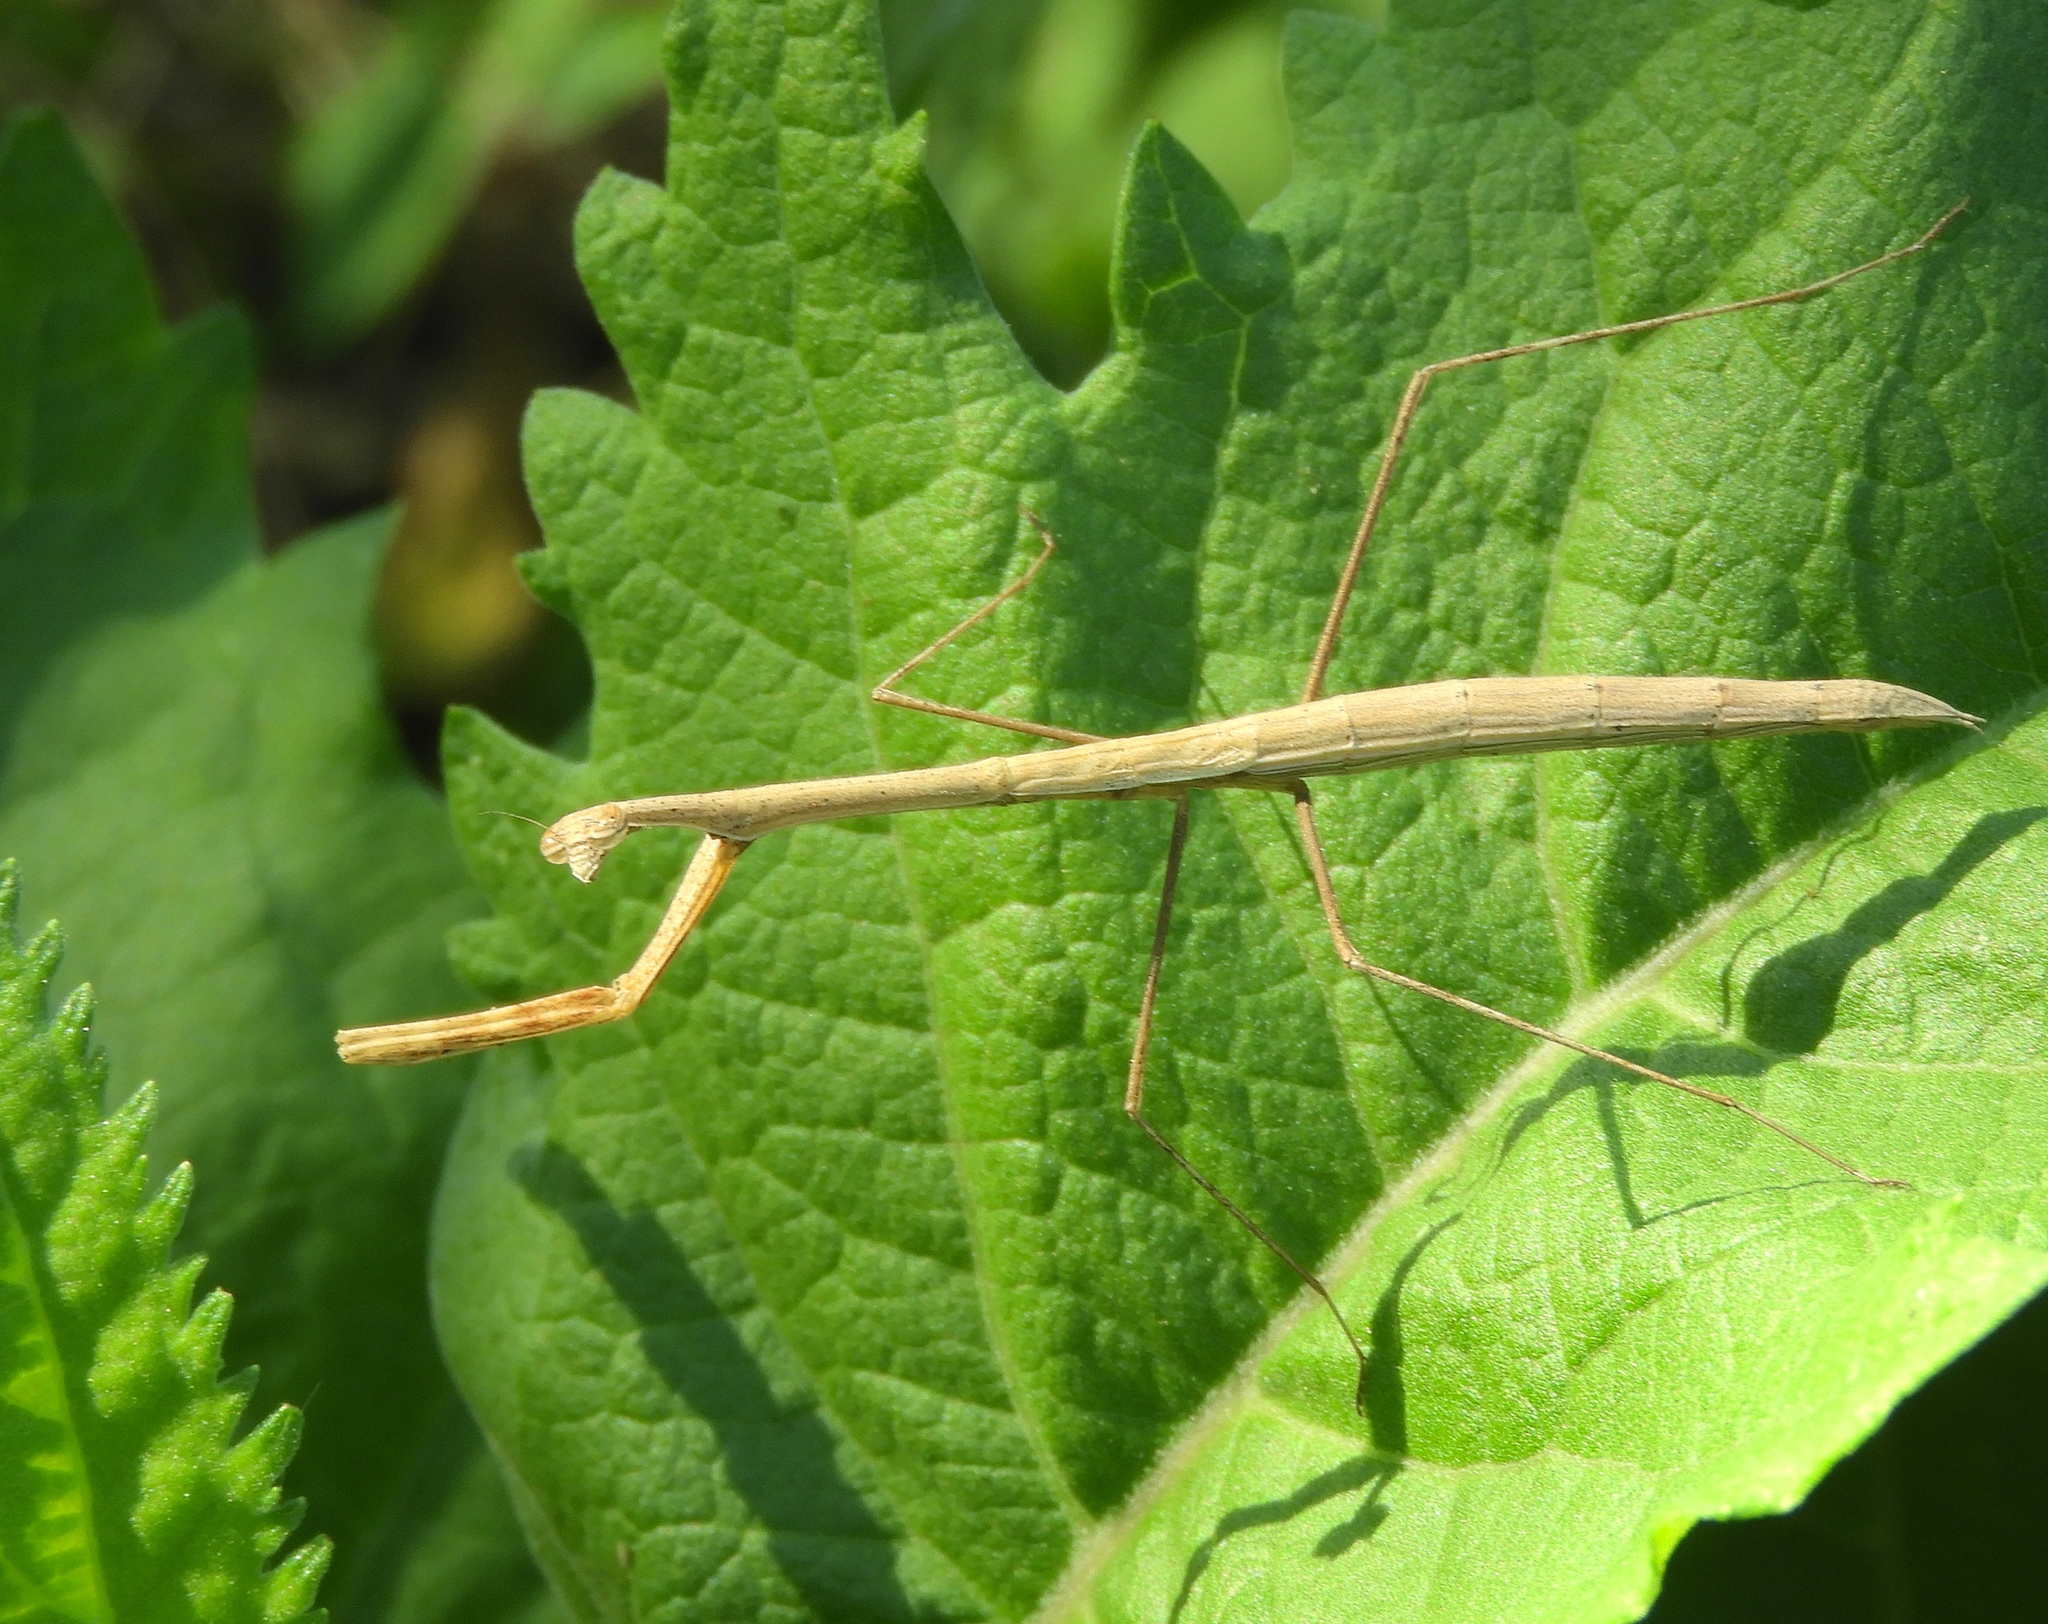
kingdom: Animalia
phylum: Arthropoda
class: Insecta
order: Mantodea
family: Thespidae
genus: Bistanta
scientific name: Bistanta mexicana
